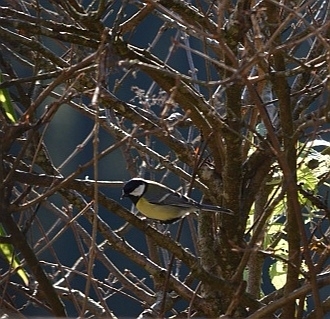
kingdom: Animalia
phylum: Chordata
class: Aves
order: Passeriformes
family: Paridae
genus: Parus
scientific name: Parus major
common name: Great tit
